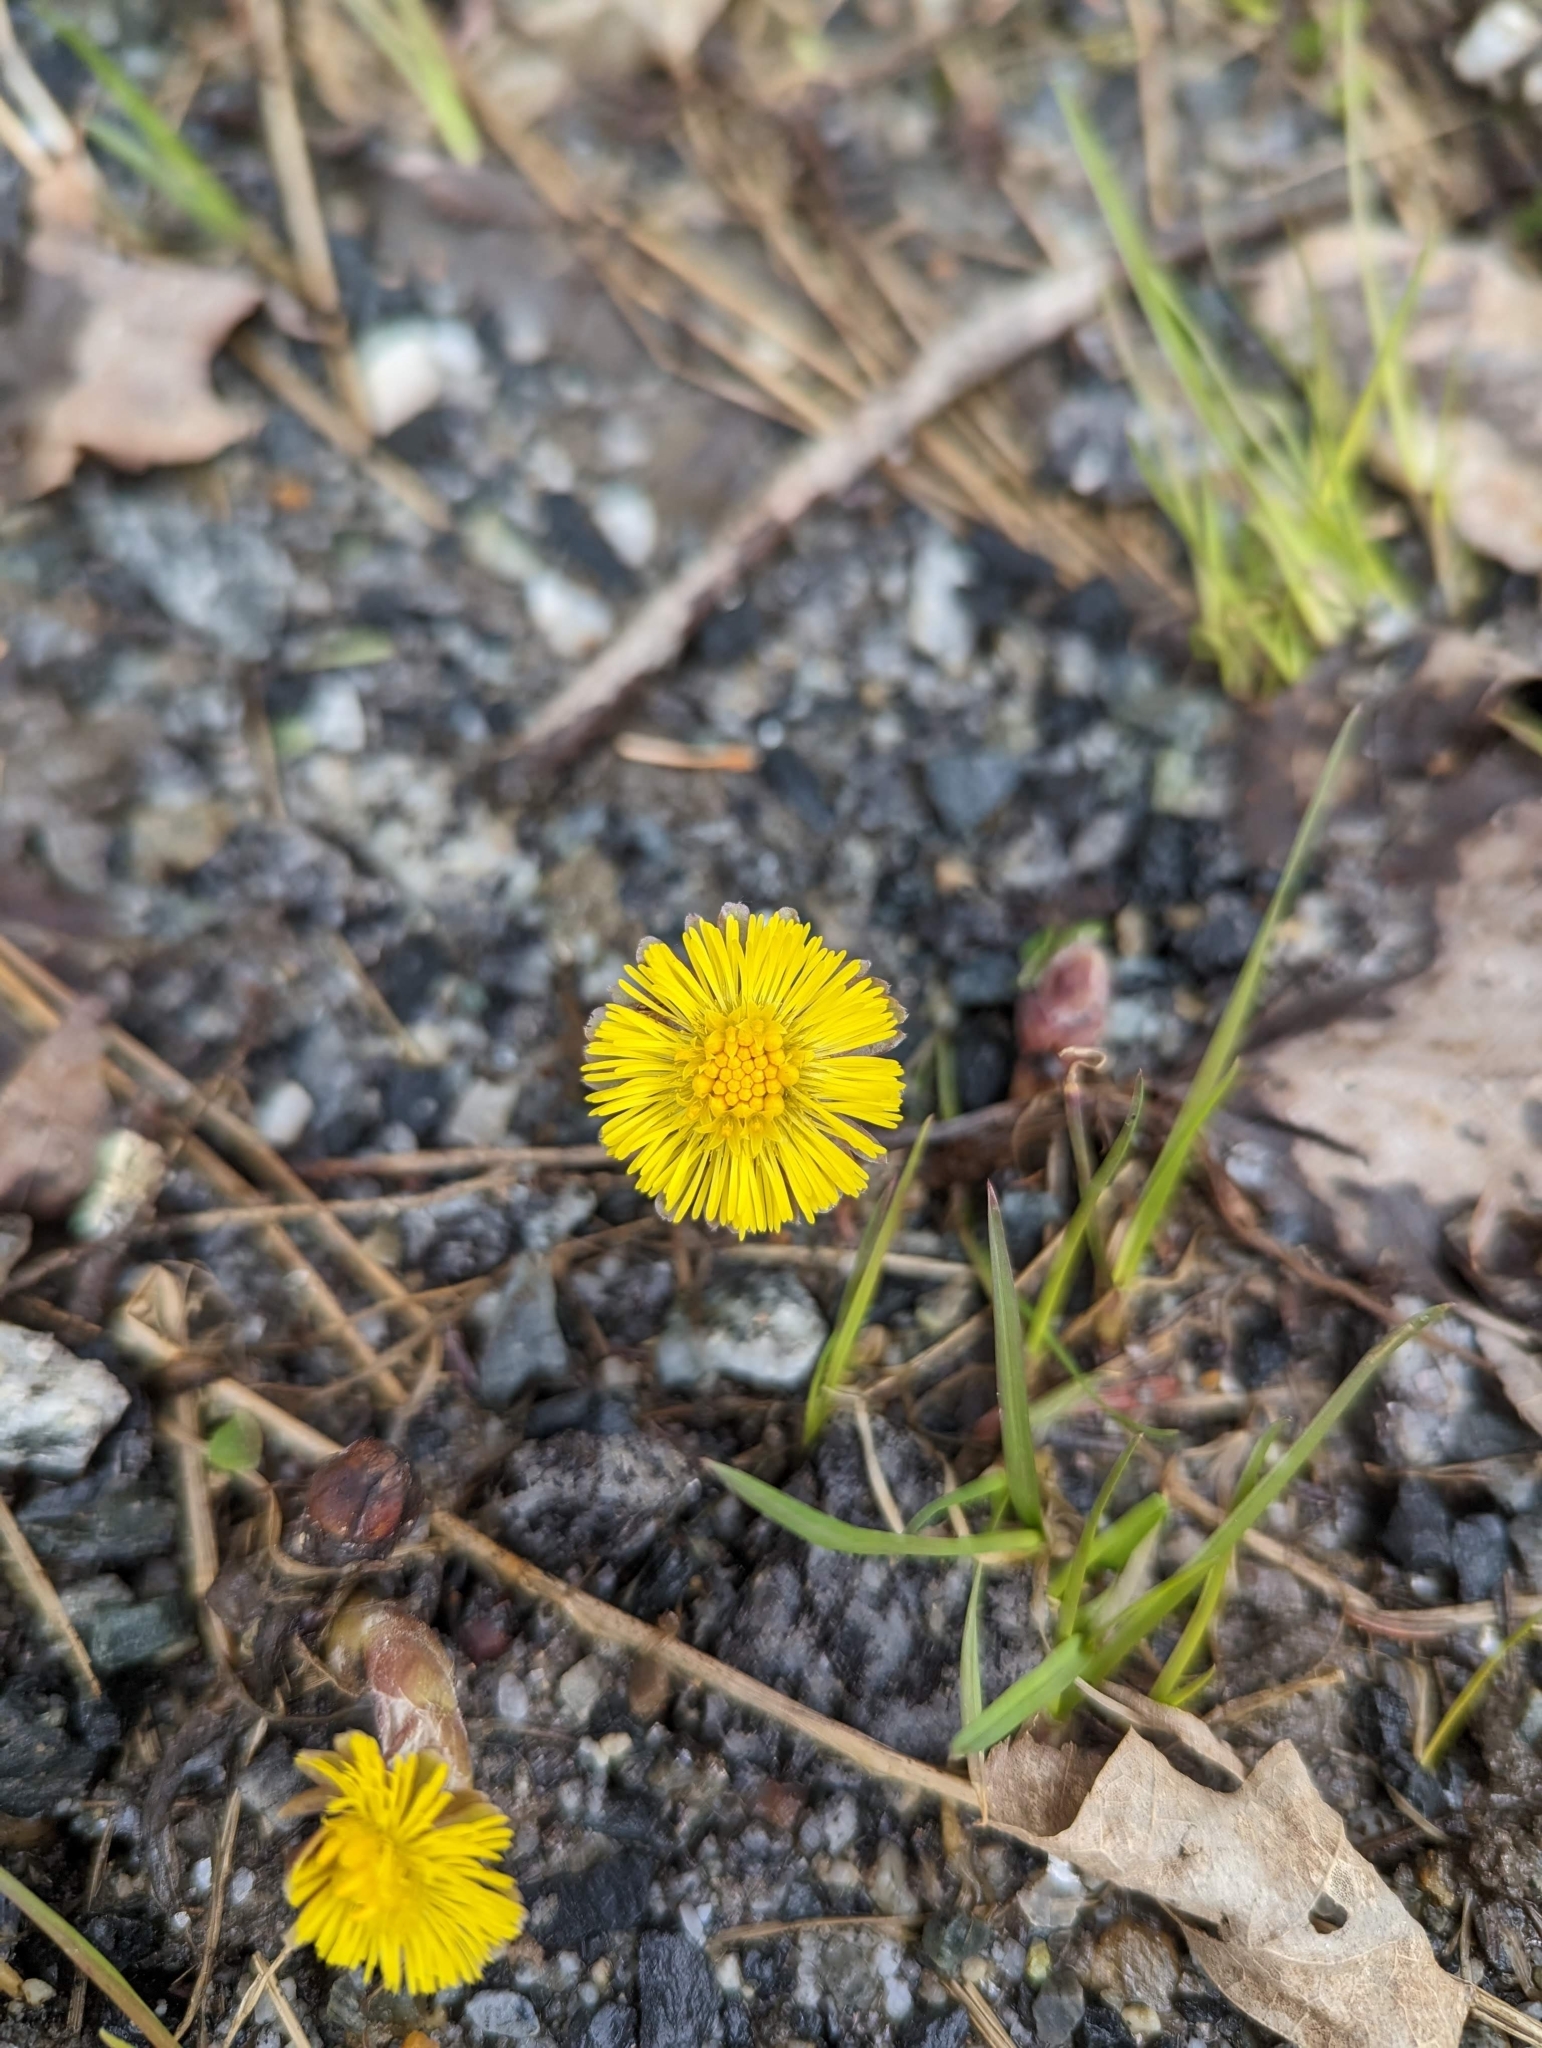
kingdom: Plantae
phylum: Tracheophyta
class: Magnoliopsida
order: Asterales
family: Asteraceae
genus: Tussilago
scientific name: Tussilago farfara
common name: Coltsfoot
